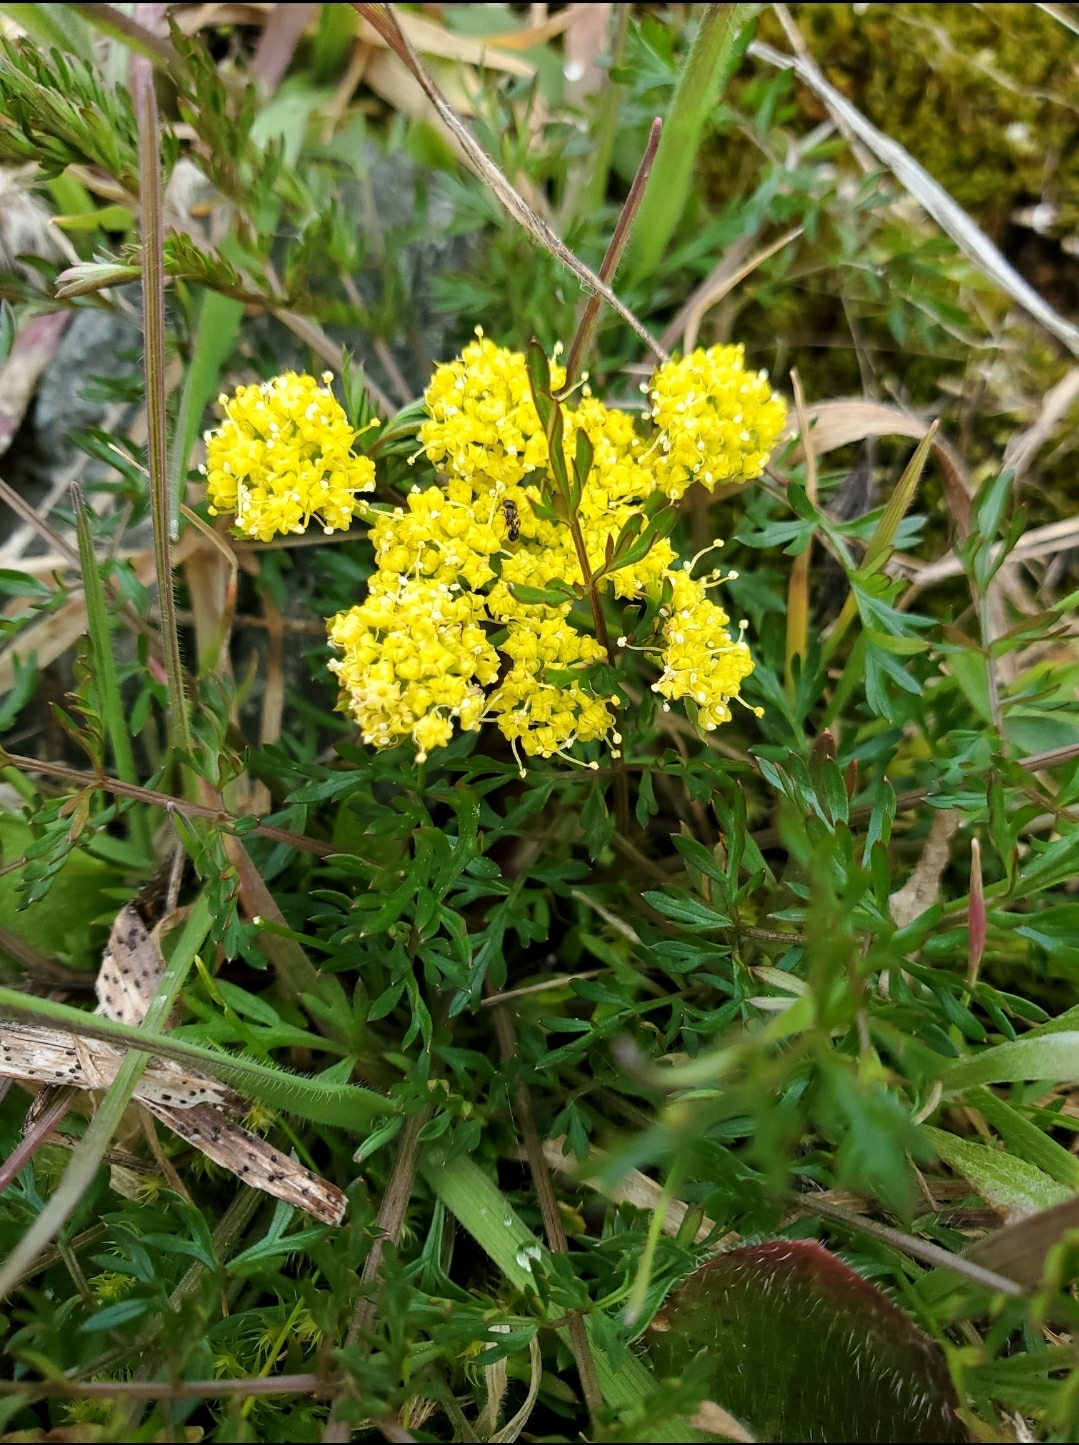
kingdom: Plantae
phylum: Tracheophyta
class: Magnoliopsida
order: Apiales
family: Apiaceae
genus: Lomatium
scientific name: Lomatium utriculatum
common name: Fine-leaf desert-parsley
